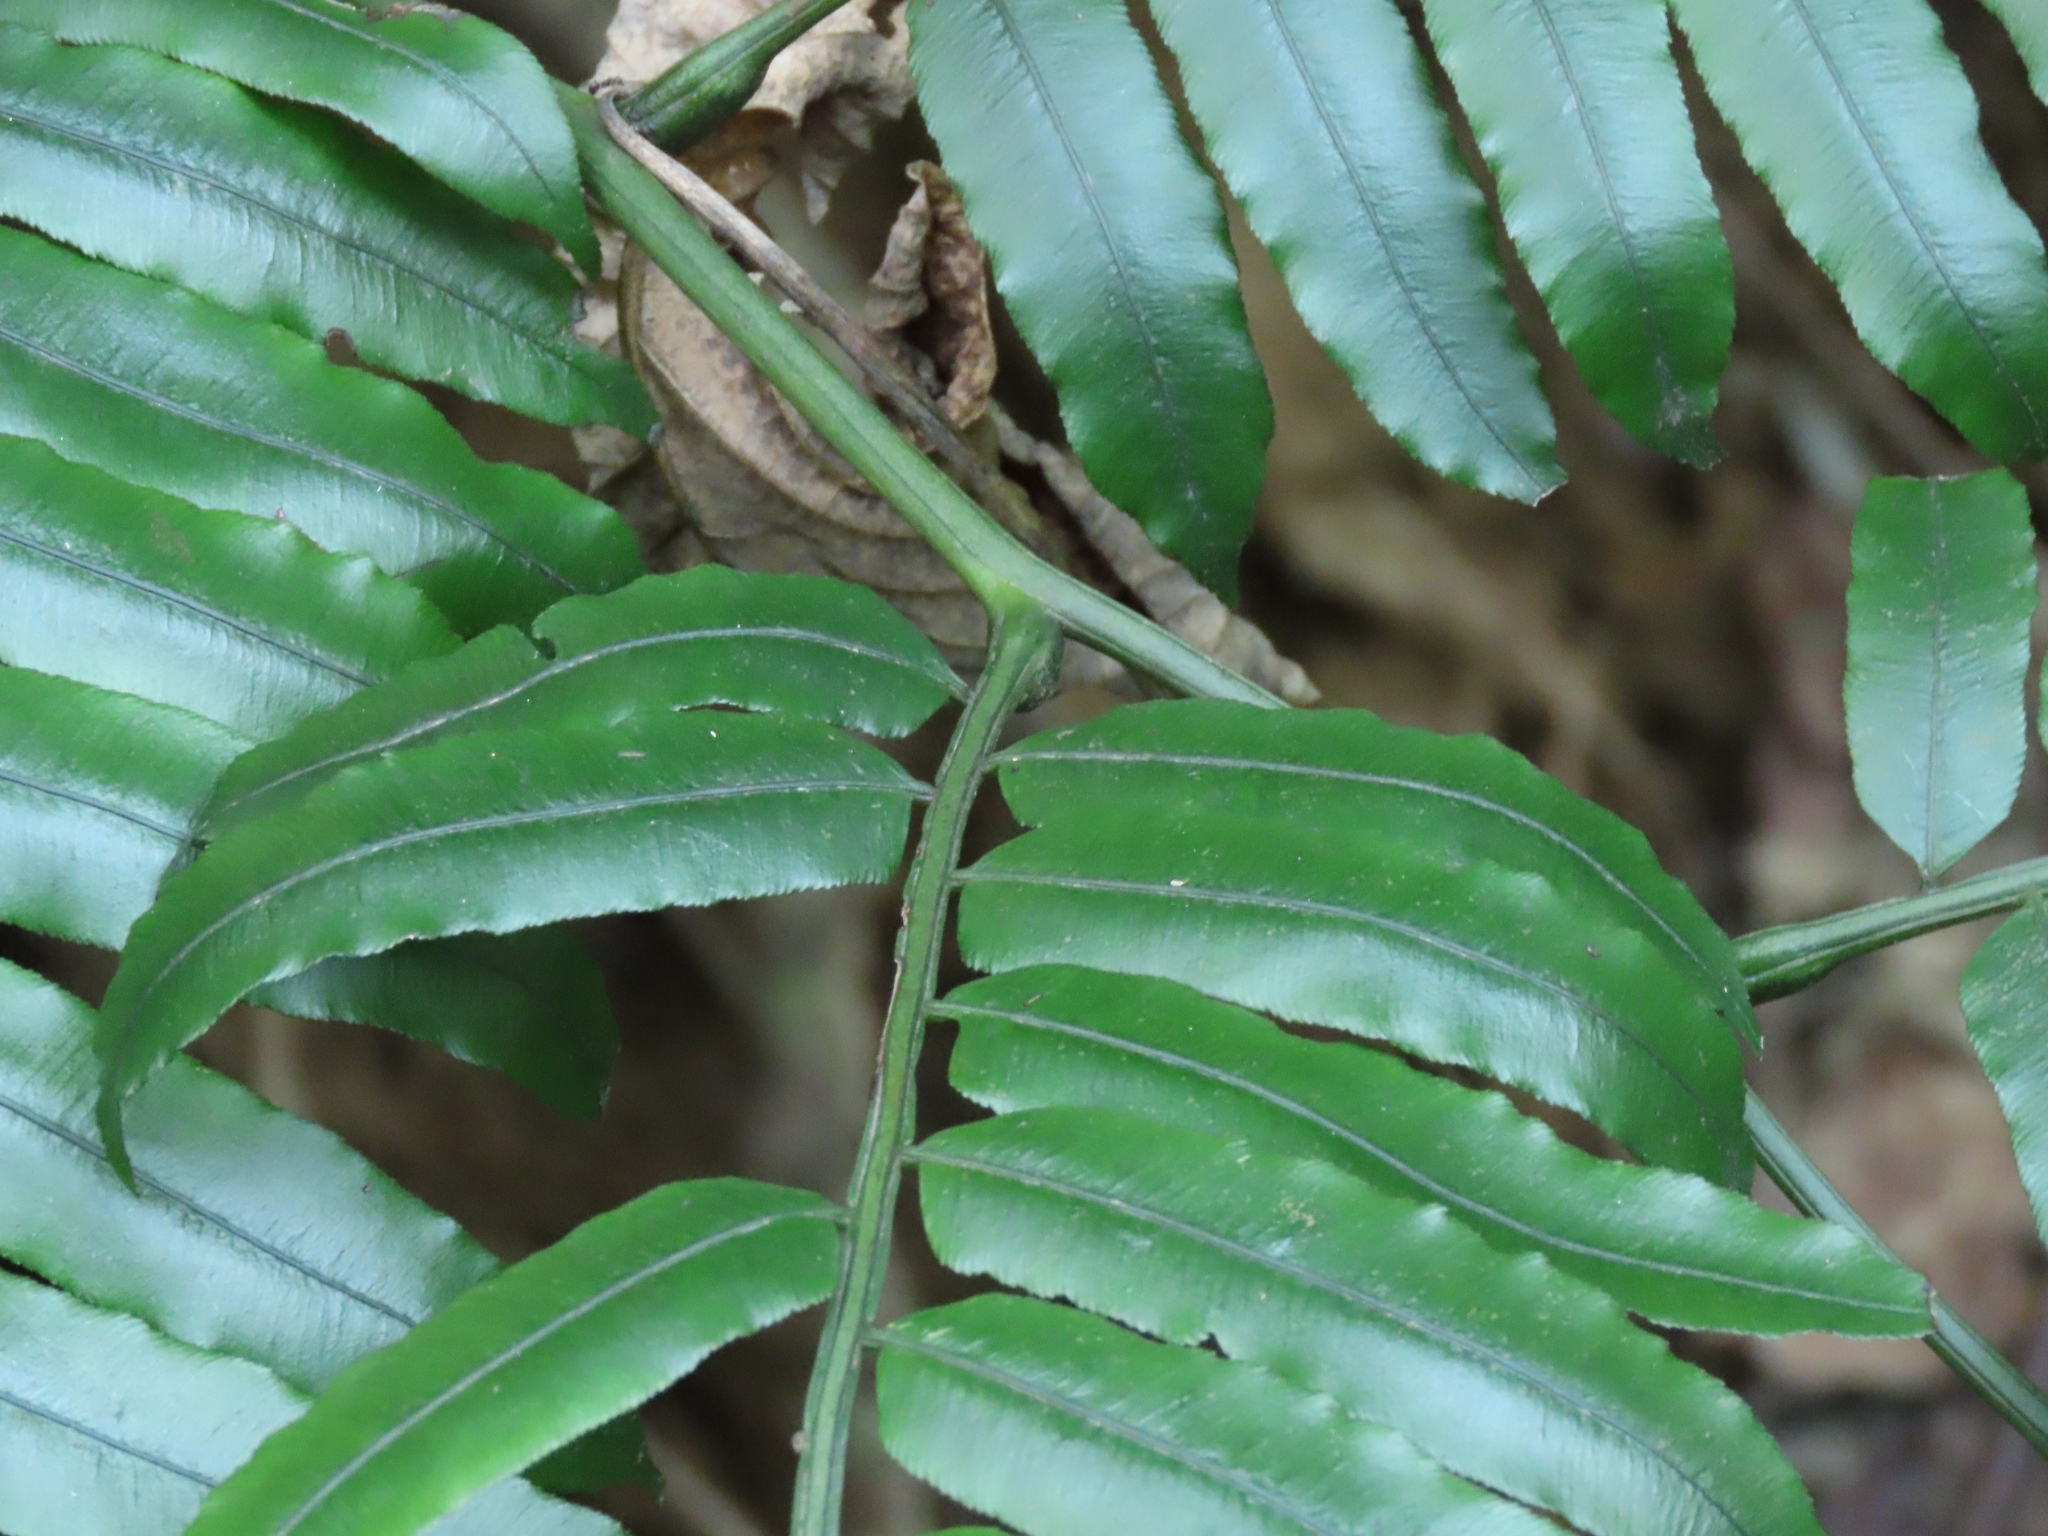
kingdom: Plantae
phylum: Tracheophyta
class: Polypodiopsida
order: Marattiales
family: Marattiaceae
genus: Angiopteris
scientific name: Angiopteris lygodiifolia
